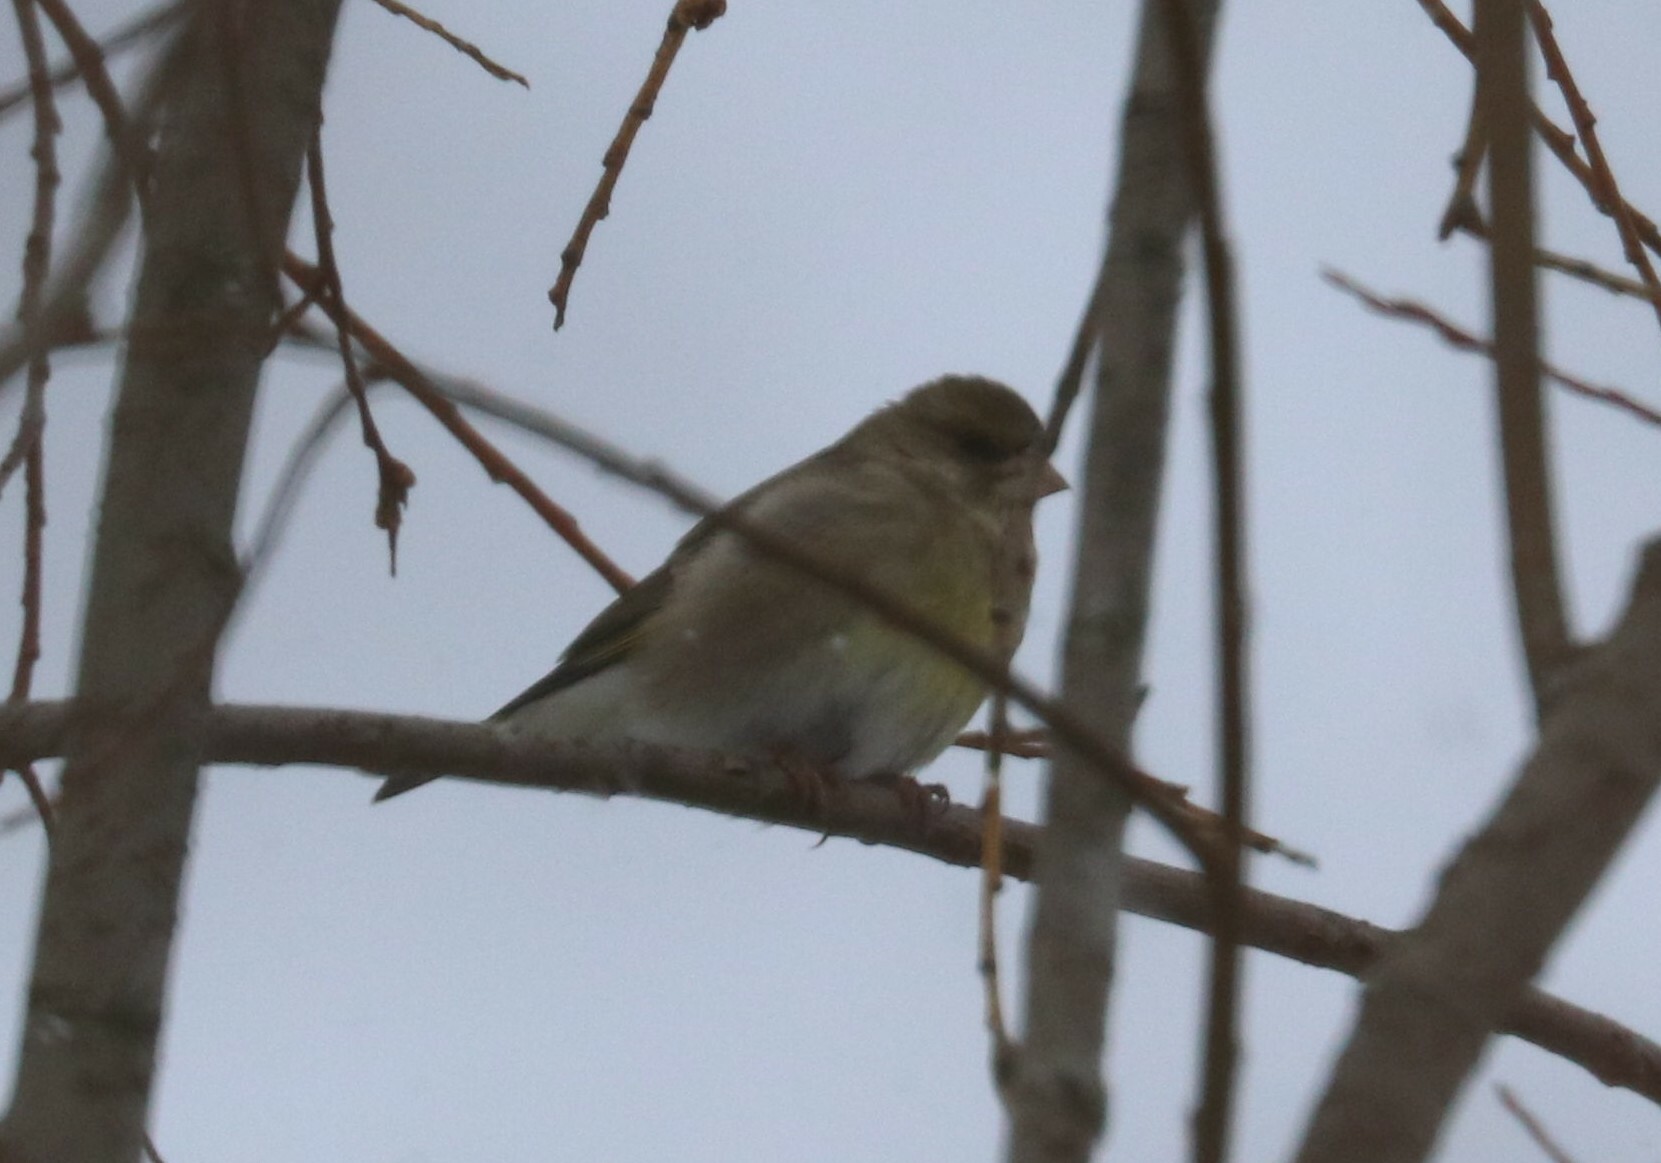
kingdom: Plantae
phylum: Tracheophyta
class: Liliopsida
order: Poales
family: Poaceae
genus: Chloris
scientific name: Chloris chloris
